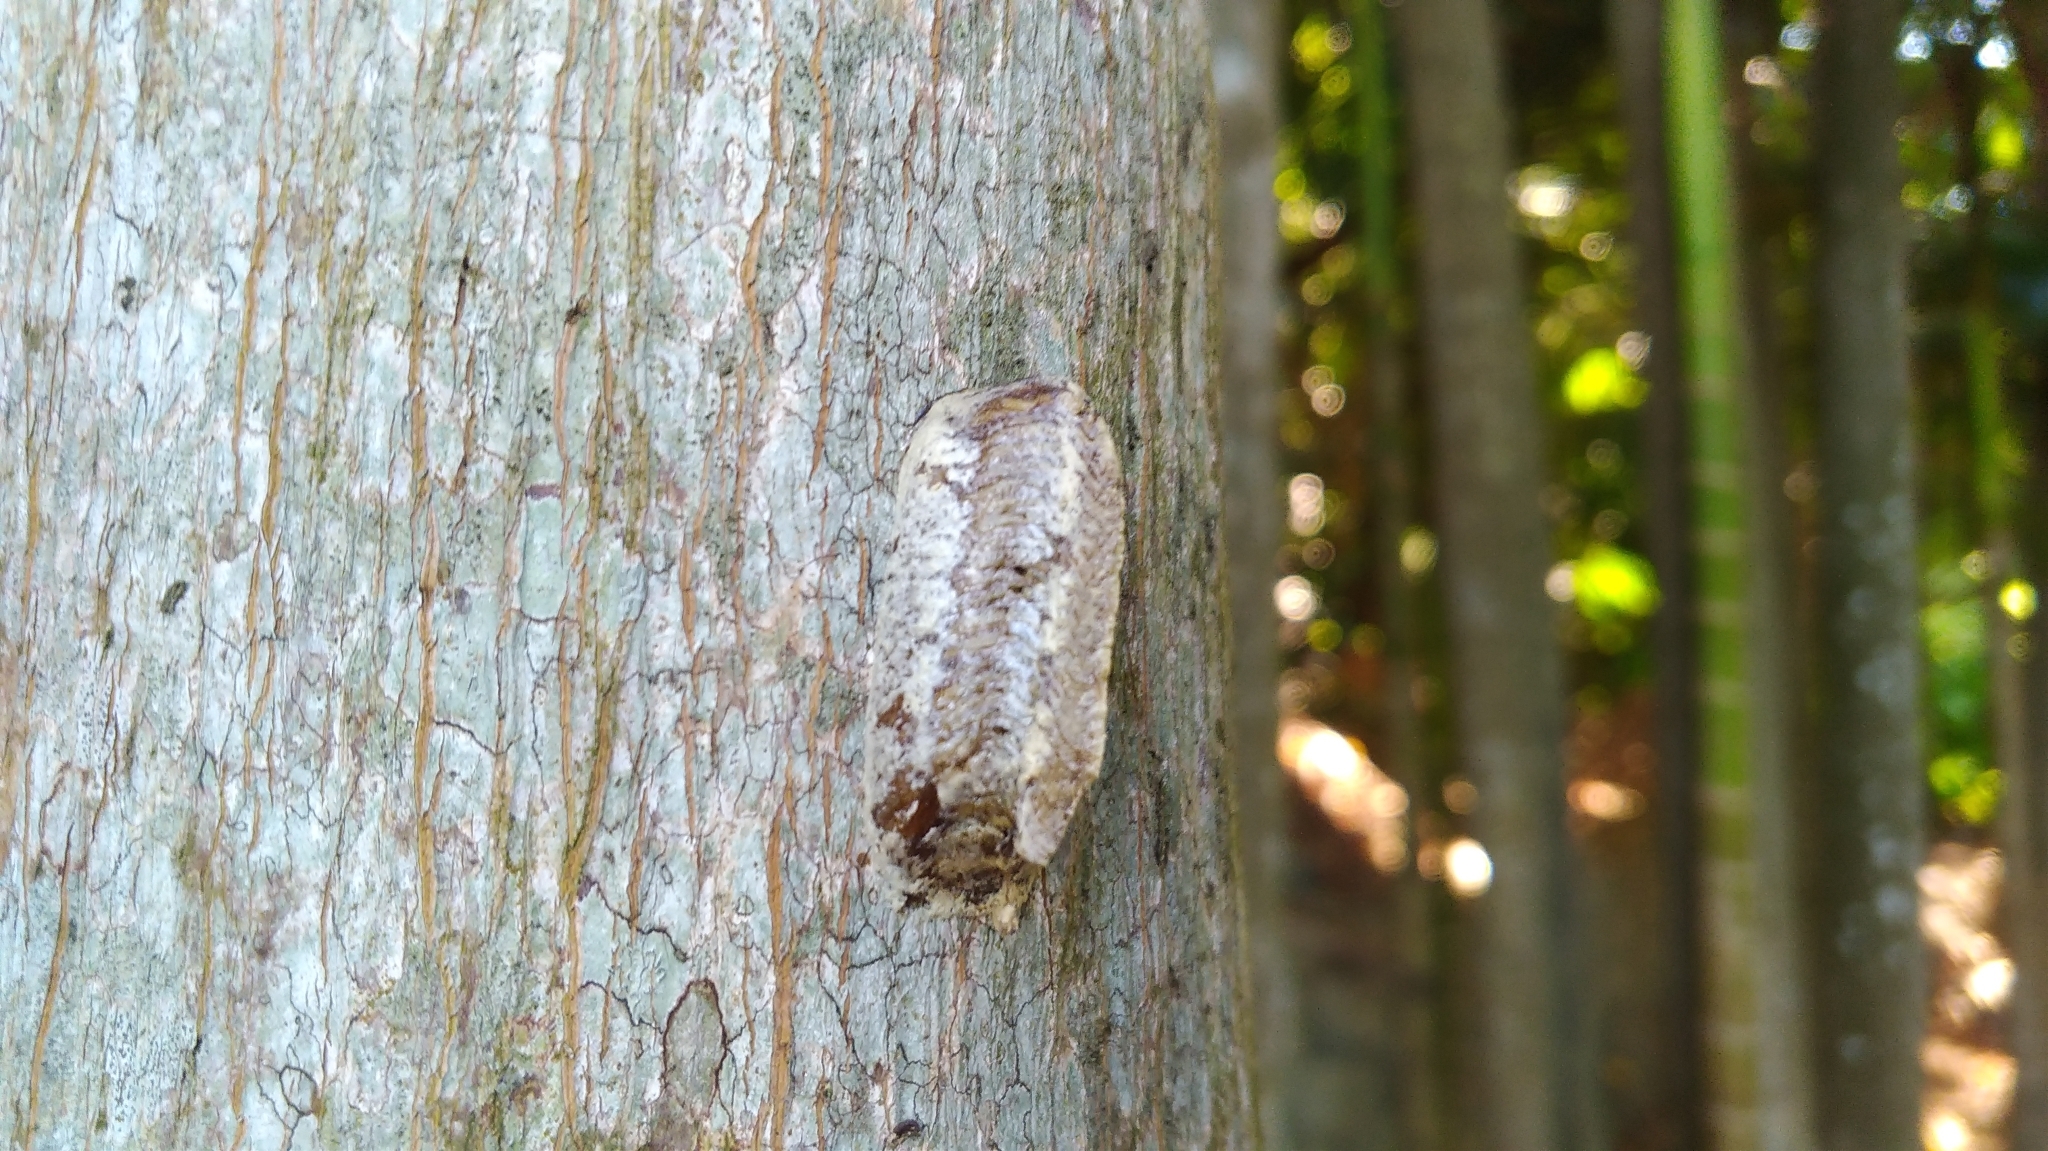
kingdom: Animalia
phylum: Arthropoda
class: Insecta
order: Mantodea
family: Mantidae
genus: Hierodula
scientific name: Hierodula patellifera
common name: Asian mantis
